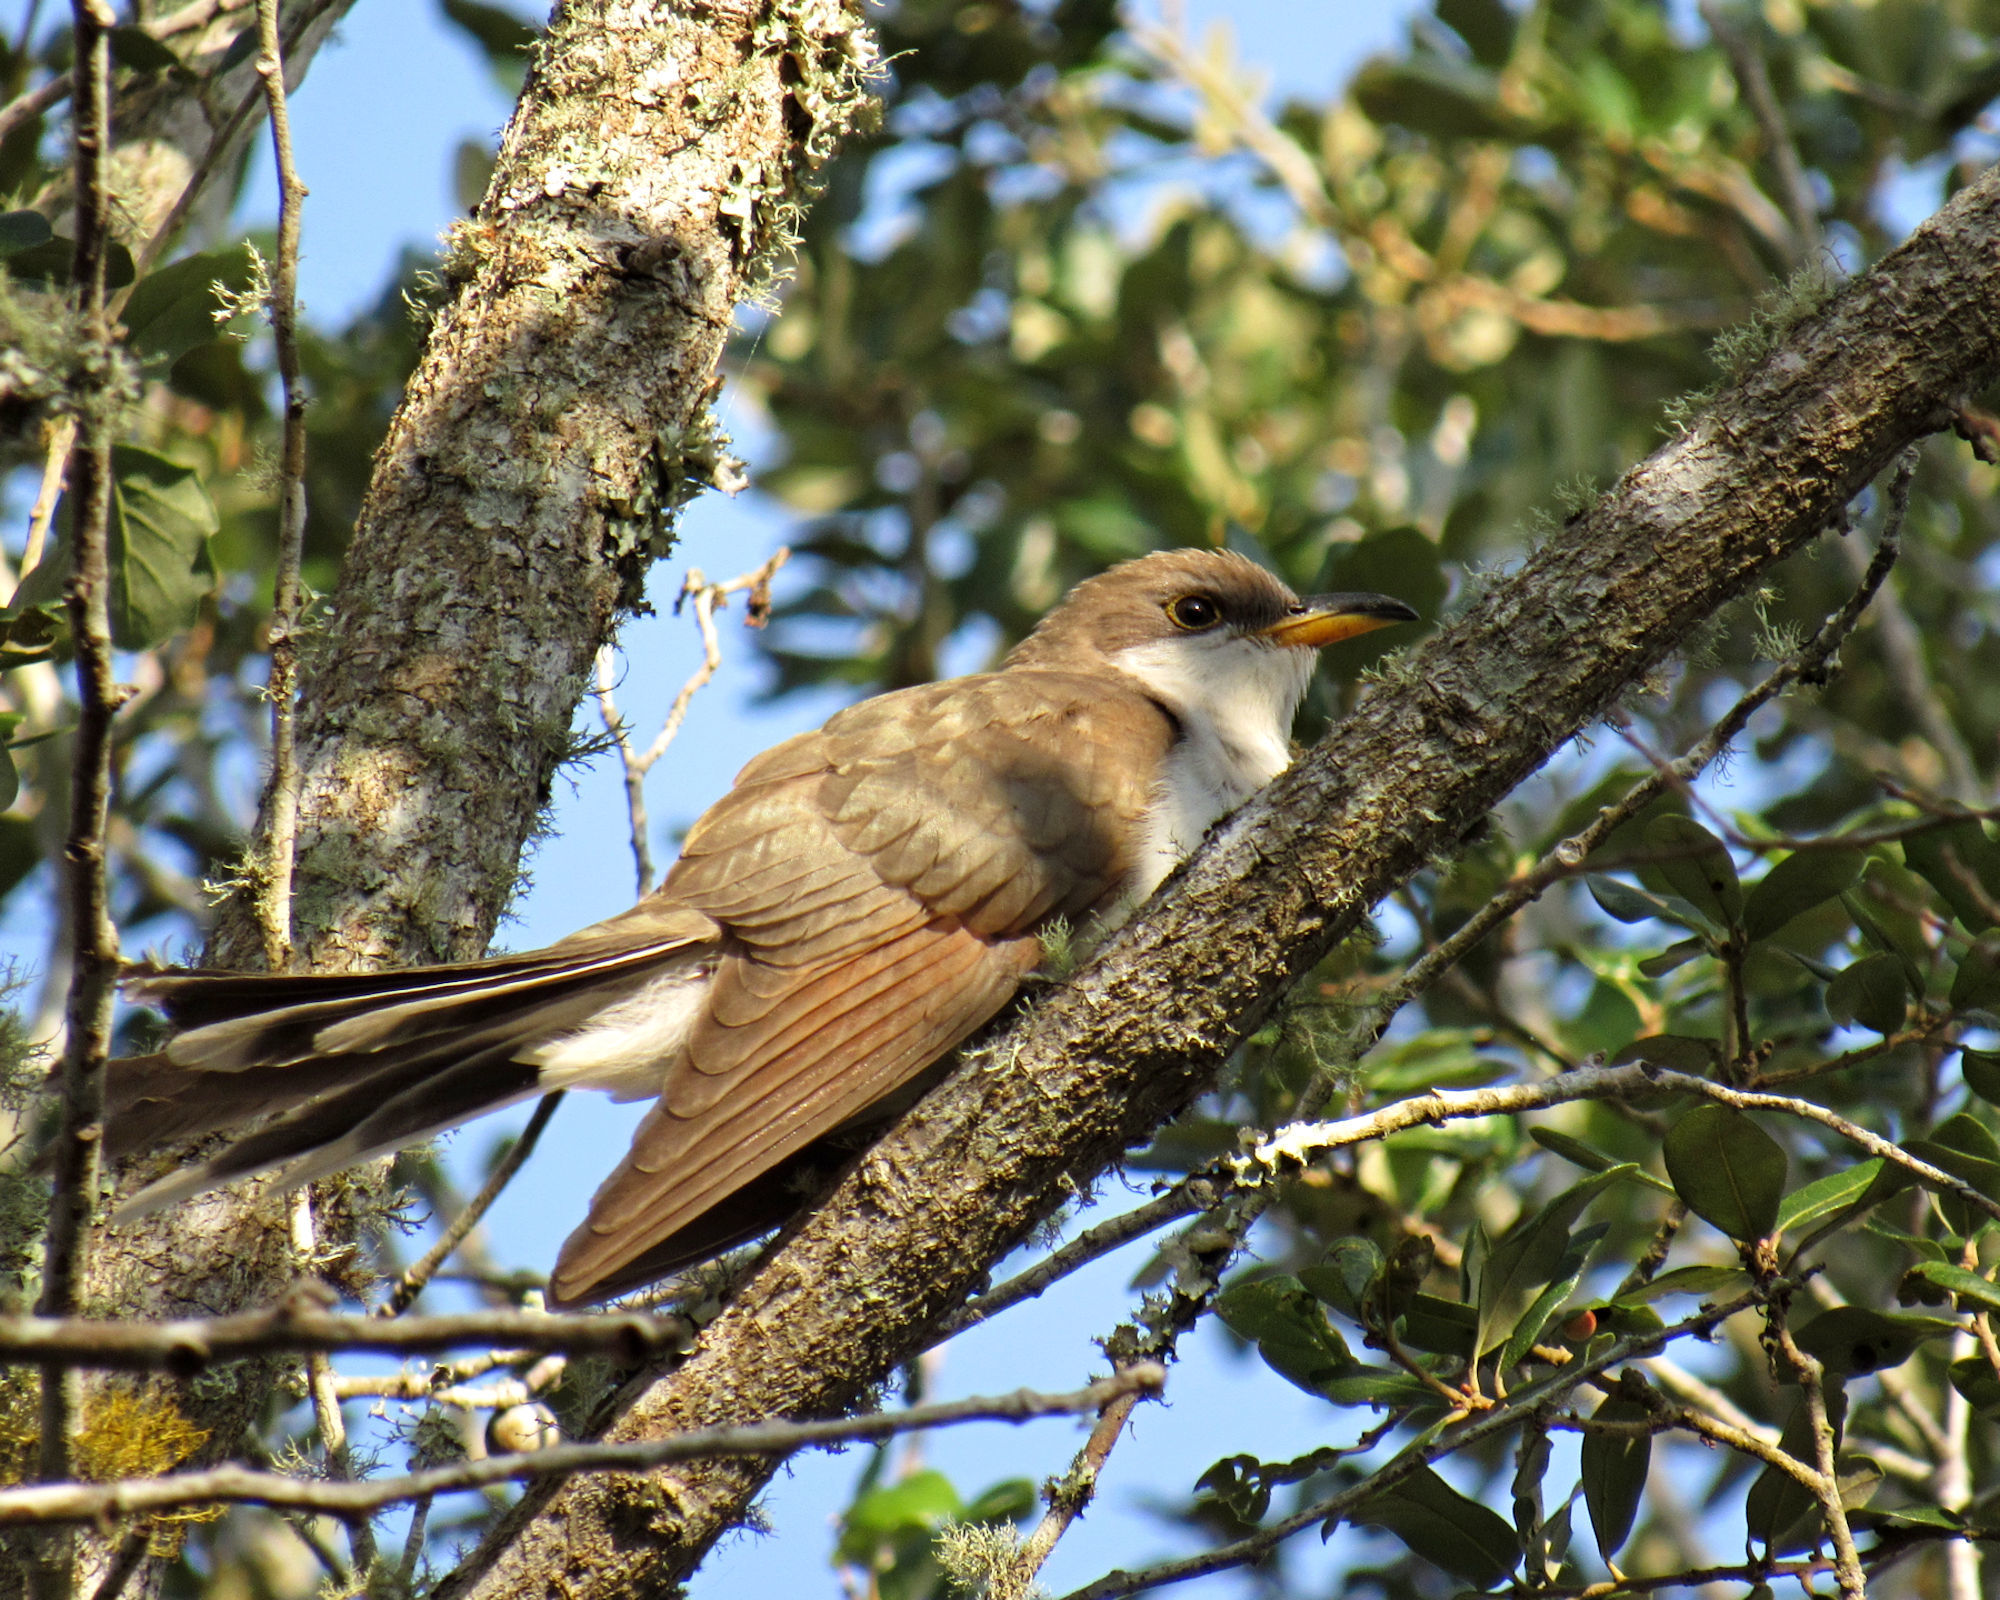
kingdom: Animalia
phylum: Chordata
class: Aves
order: Cuculiformes
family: Cuculidae
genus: Coccyzus
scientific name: Coccyzus americanus
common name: Yellow-billed cuckoo
